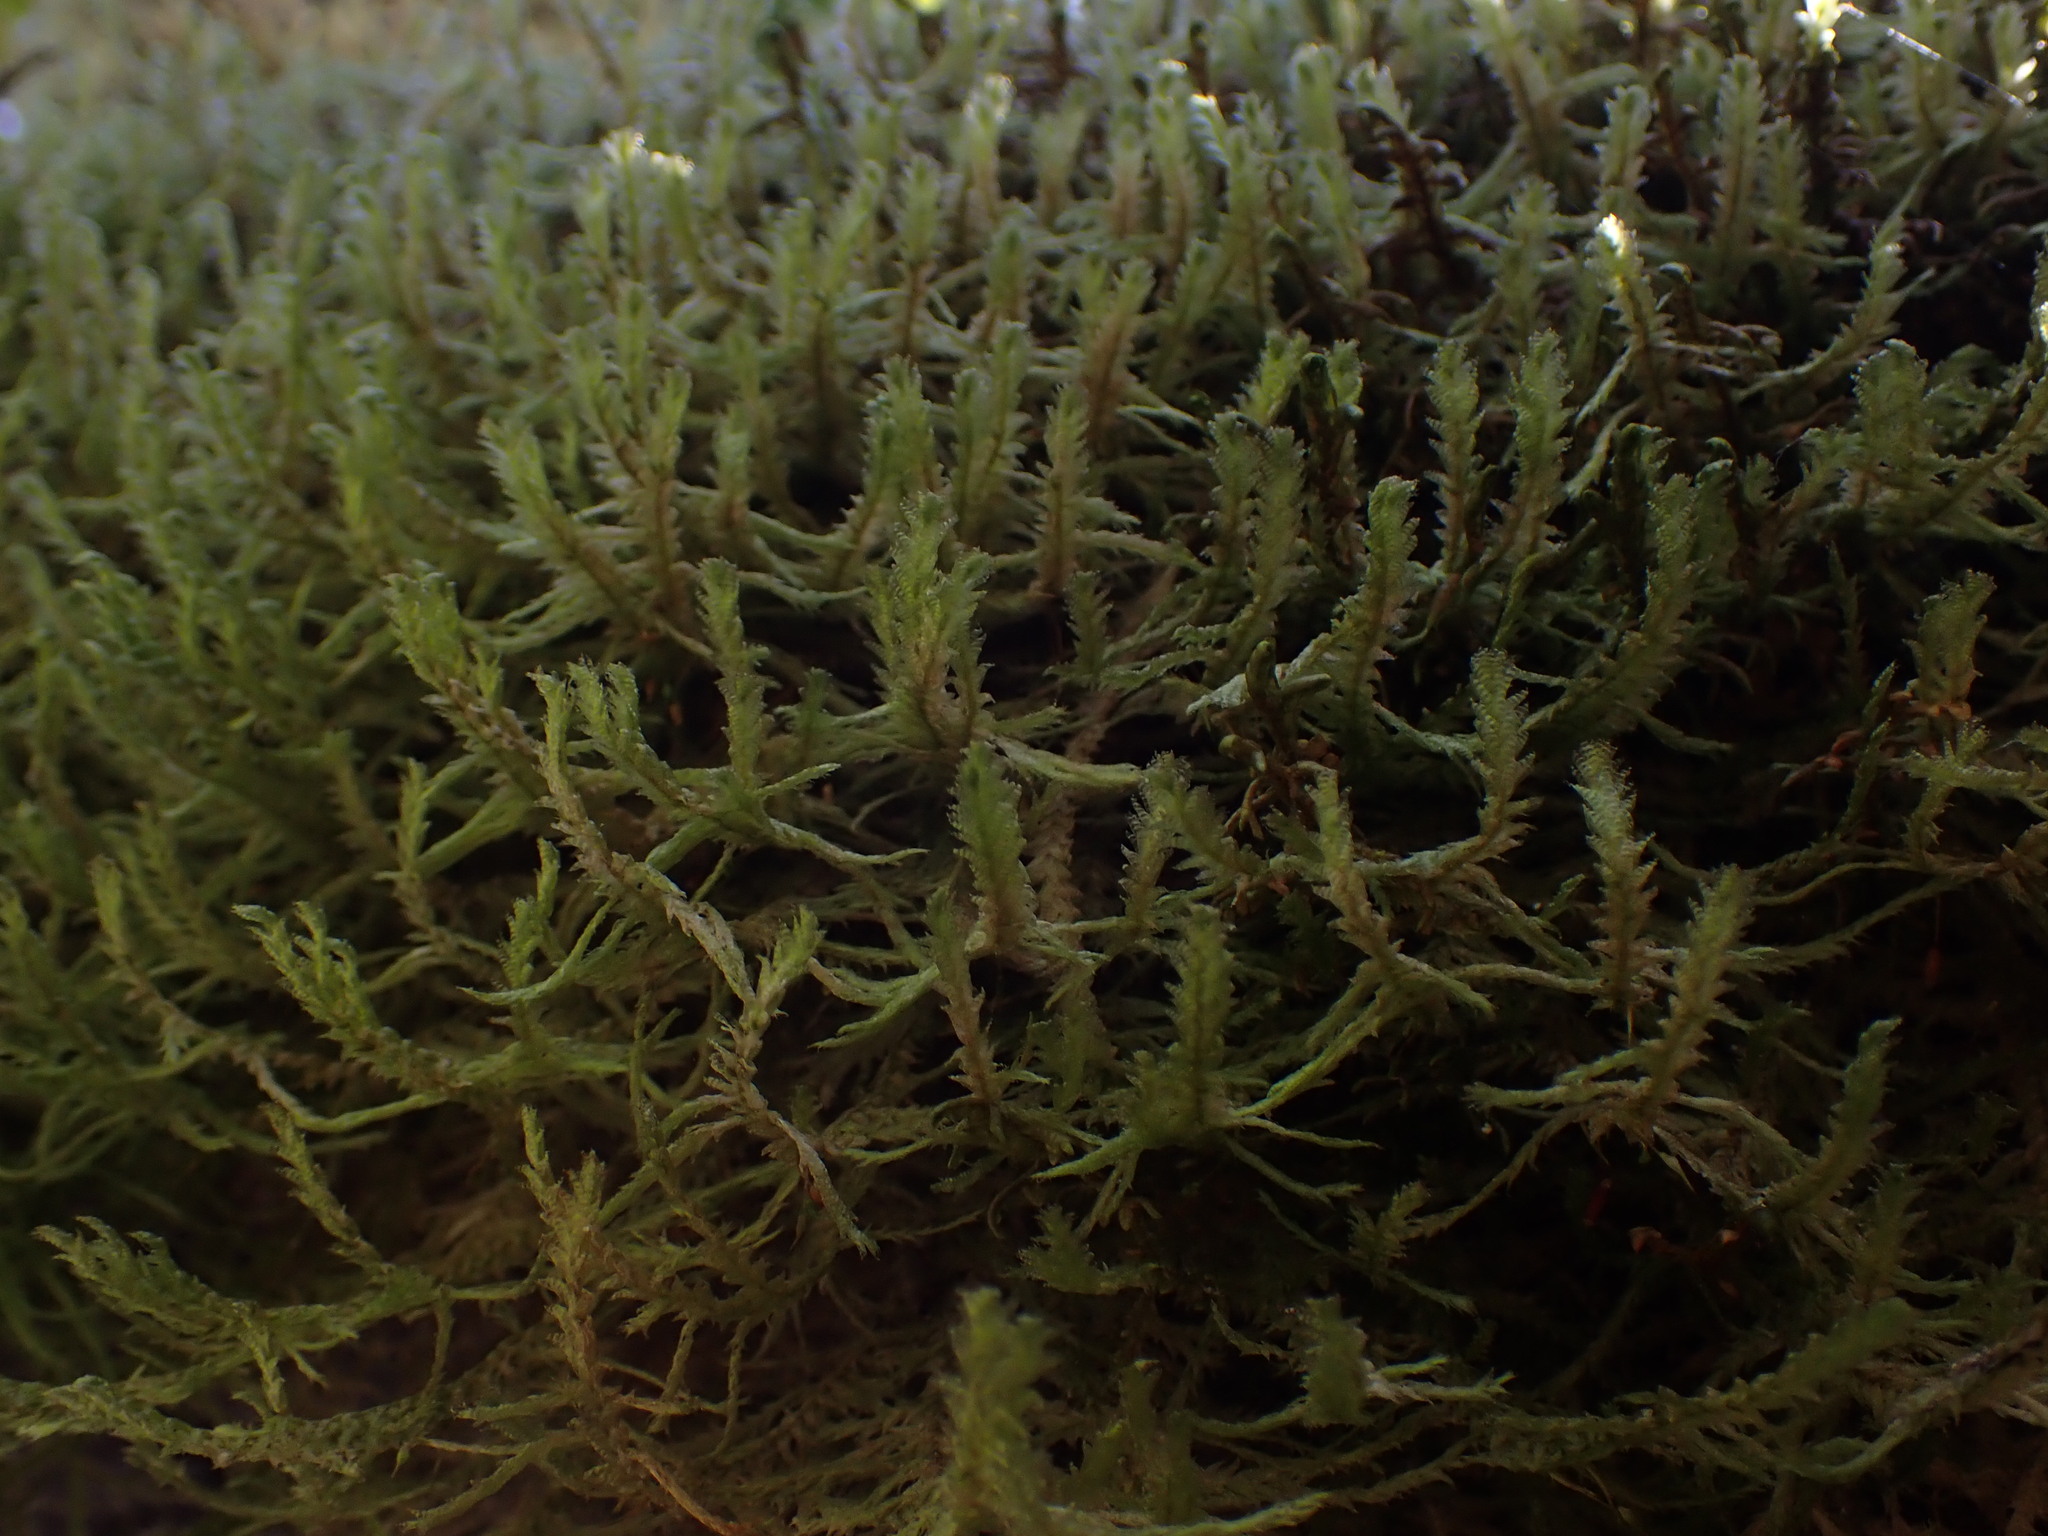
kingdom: Plantae
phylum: Bryophyta
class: Bryopsida
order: Hypnales
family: Neckeraceae
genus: Neckera
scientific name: Neckera douglasii
